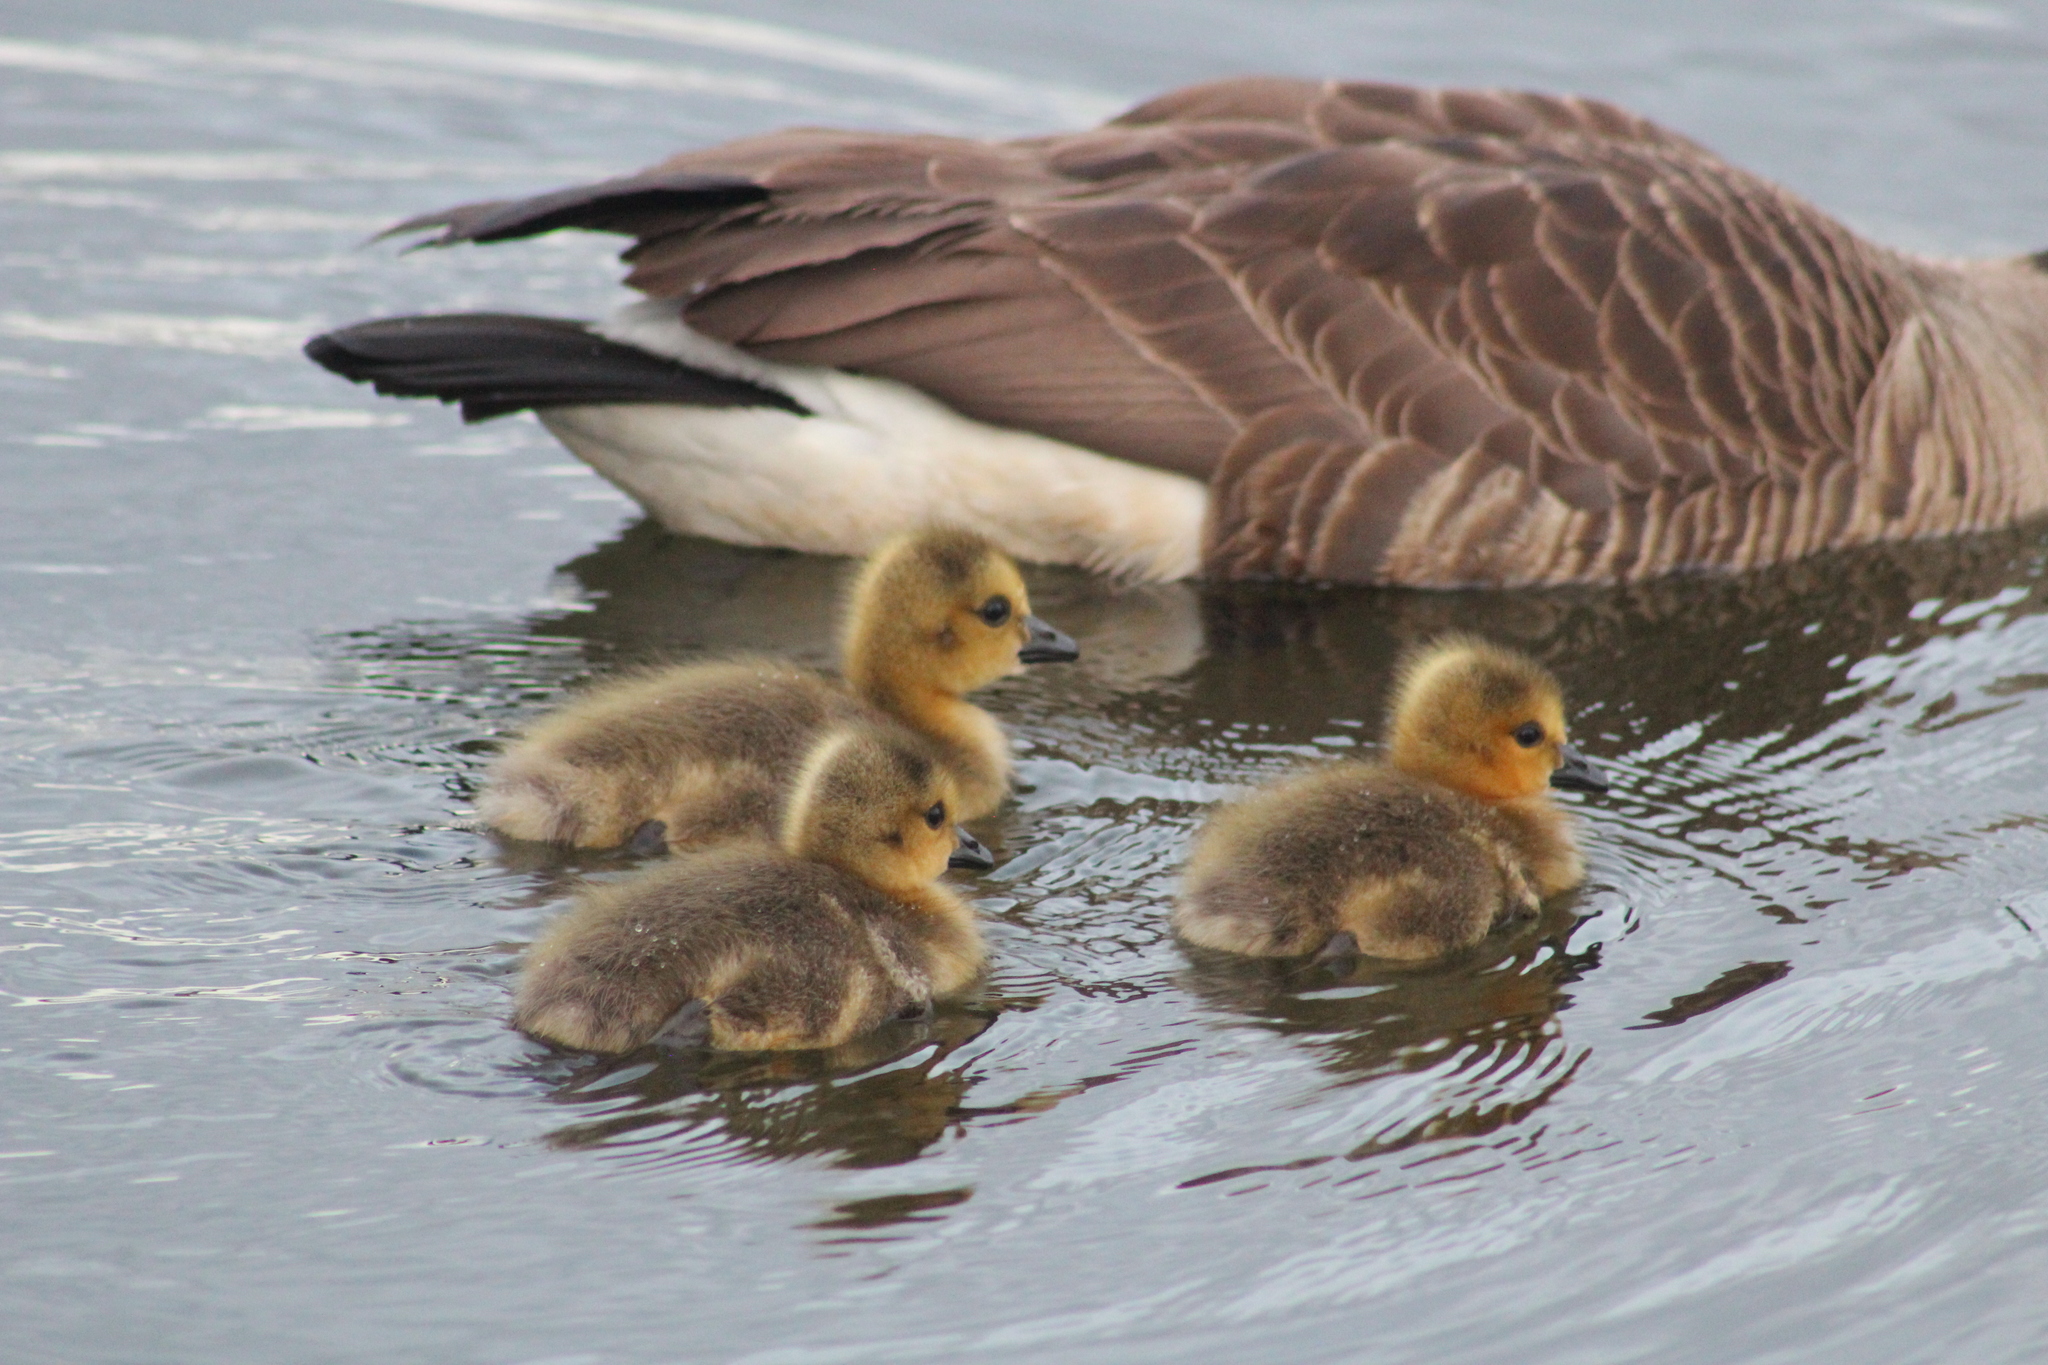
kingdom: Animalia
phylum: Chordata
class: Aves
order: Anseriformes
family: Anatidae
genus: Branta
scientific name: Branta canadensis
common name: Canada goose
